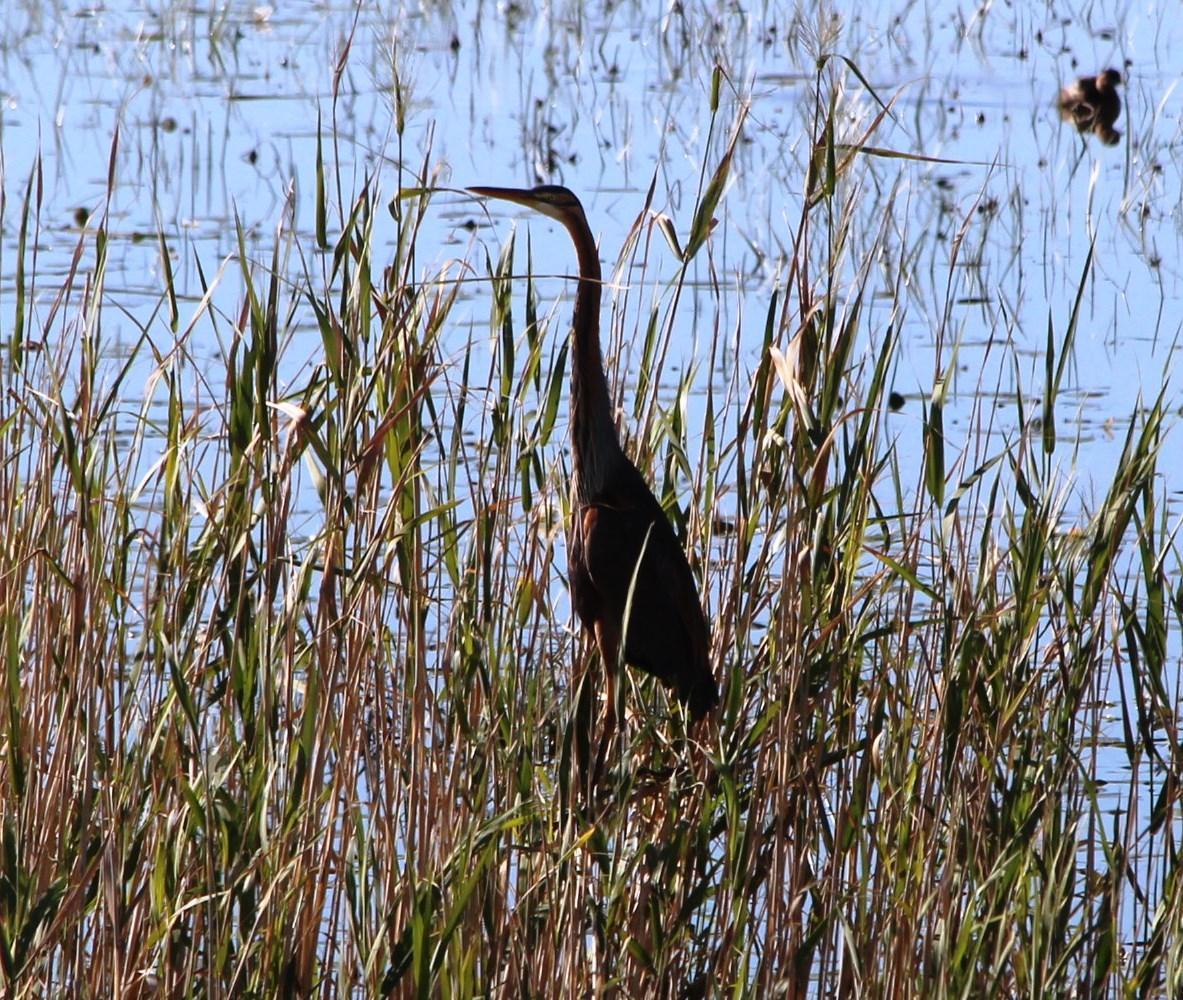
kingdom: Animalia
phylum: Chordata
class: Aves
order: Pelecaniformes
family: Ardeidae
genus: Ardea
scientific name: Ardea purpurea
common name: Purple heron
